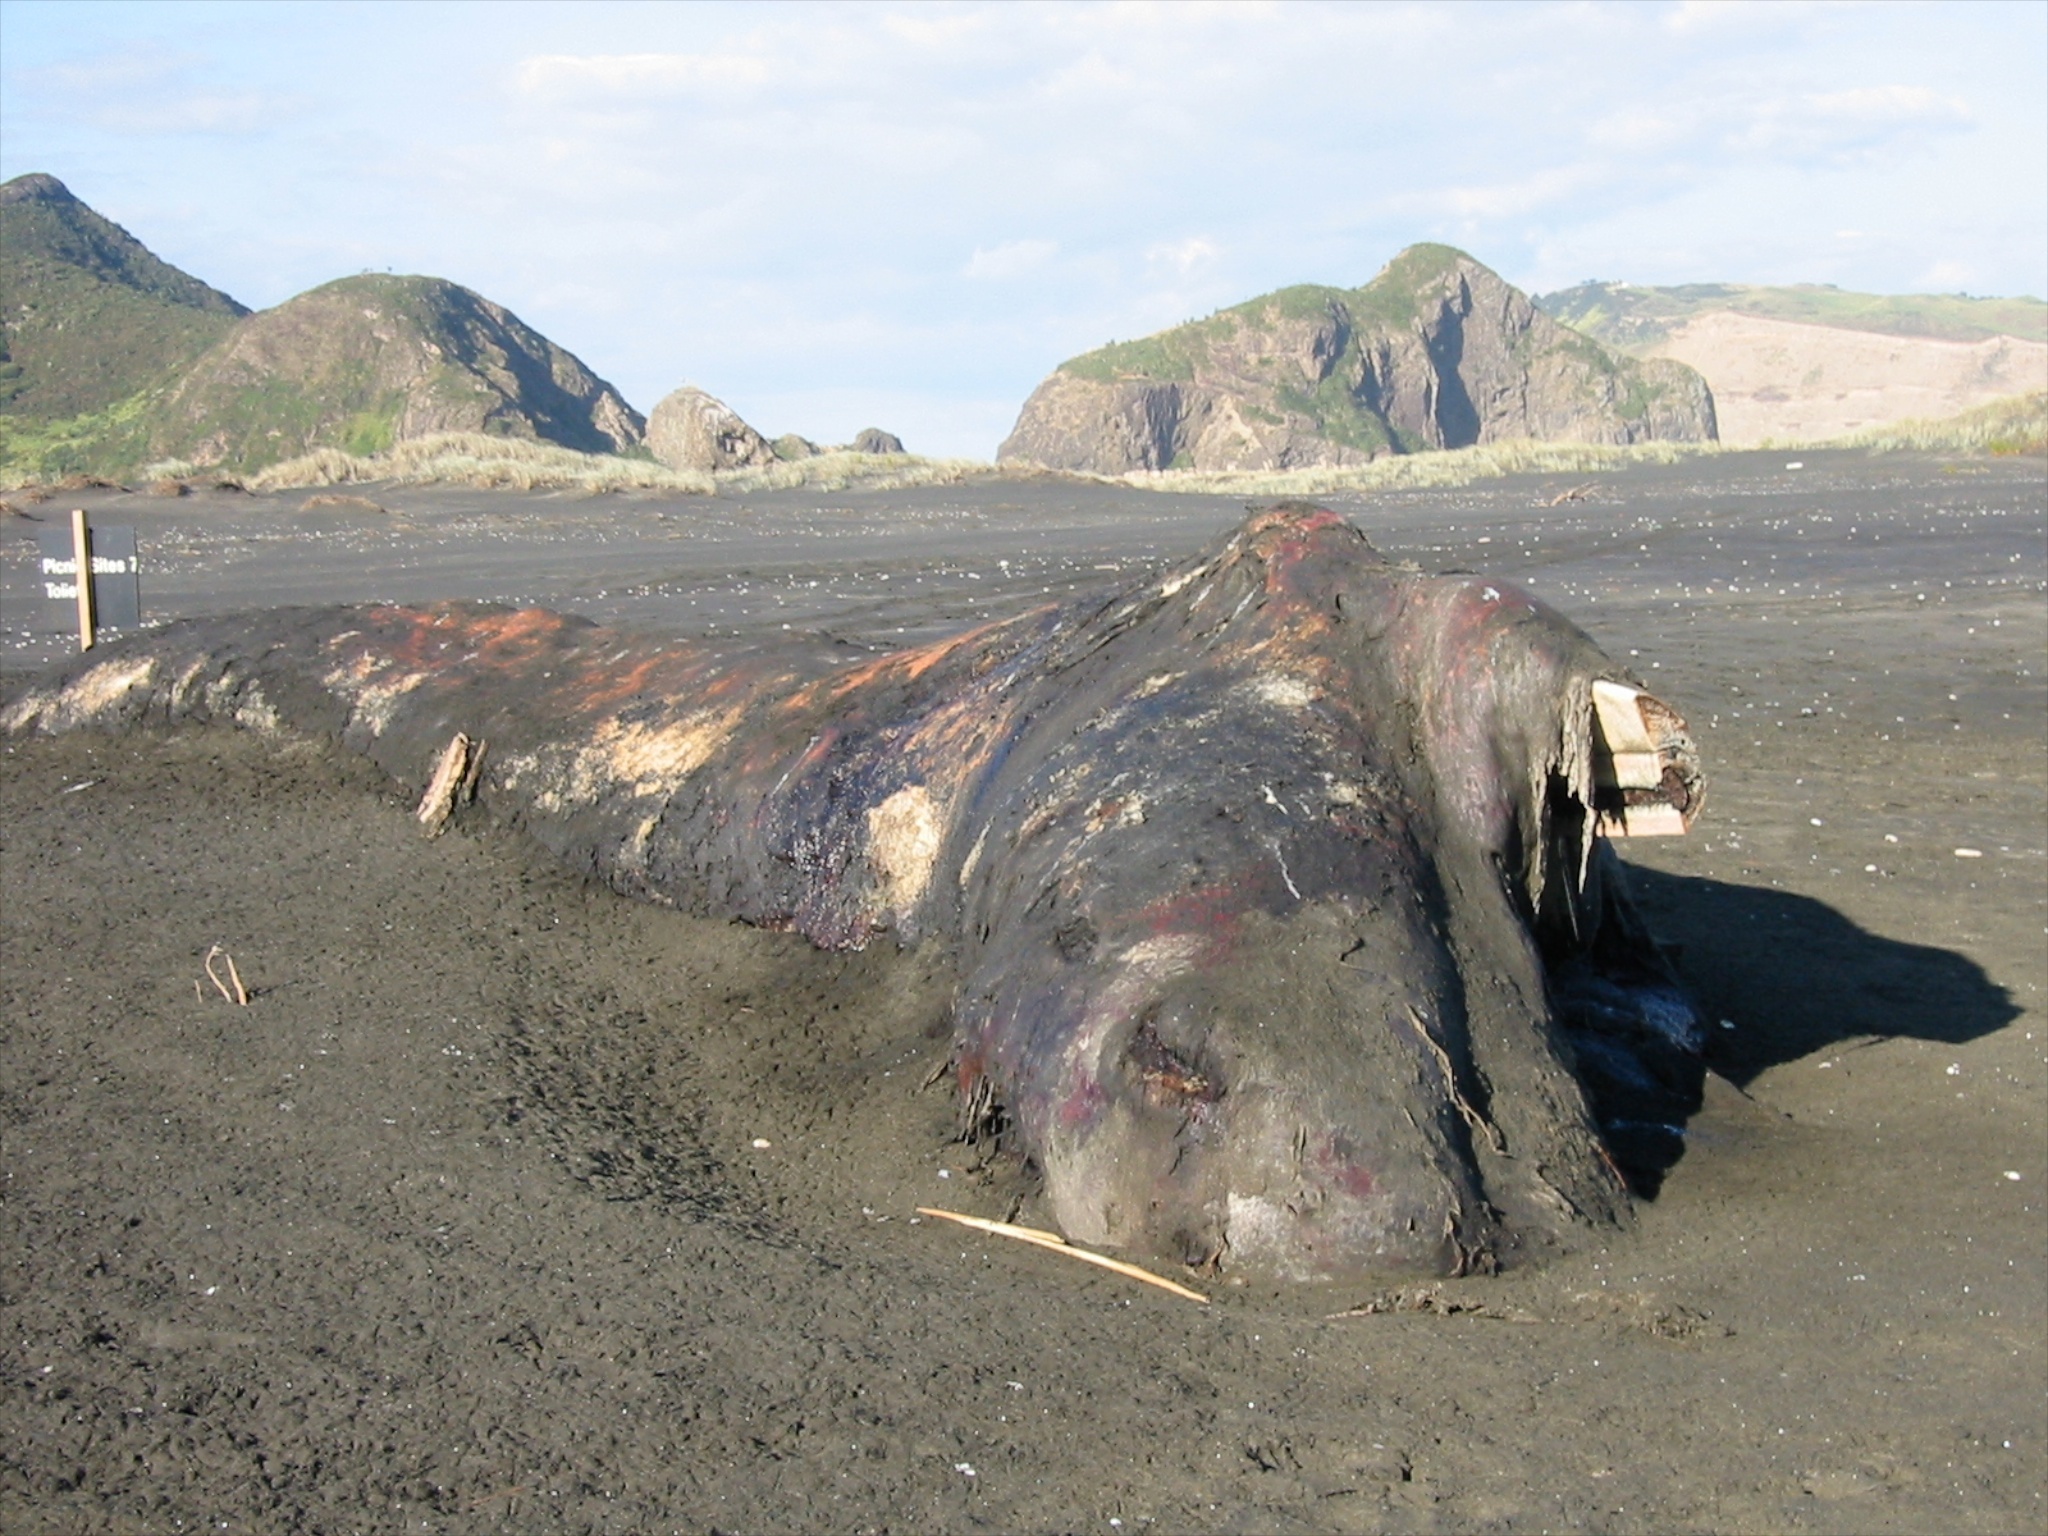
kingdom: Animalia
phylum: Chordata
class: Mammalia
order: Cetacea
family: Physeteridae
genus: Physeter
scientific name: Physeter macrocephalus
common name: Sperm whale
